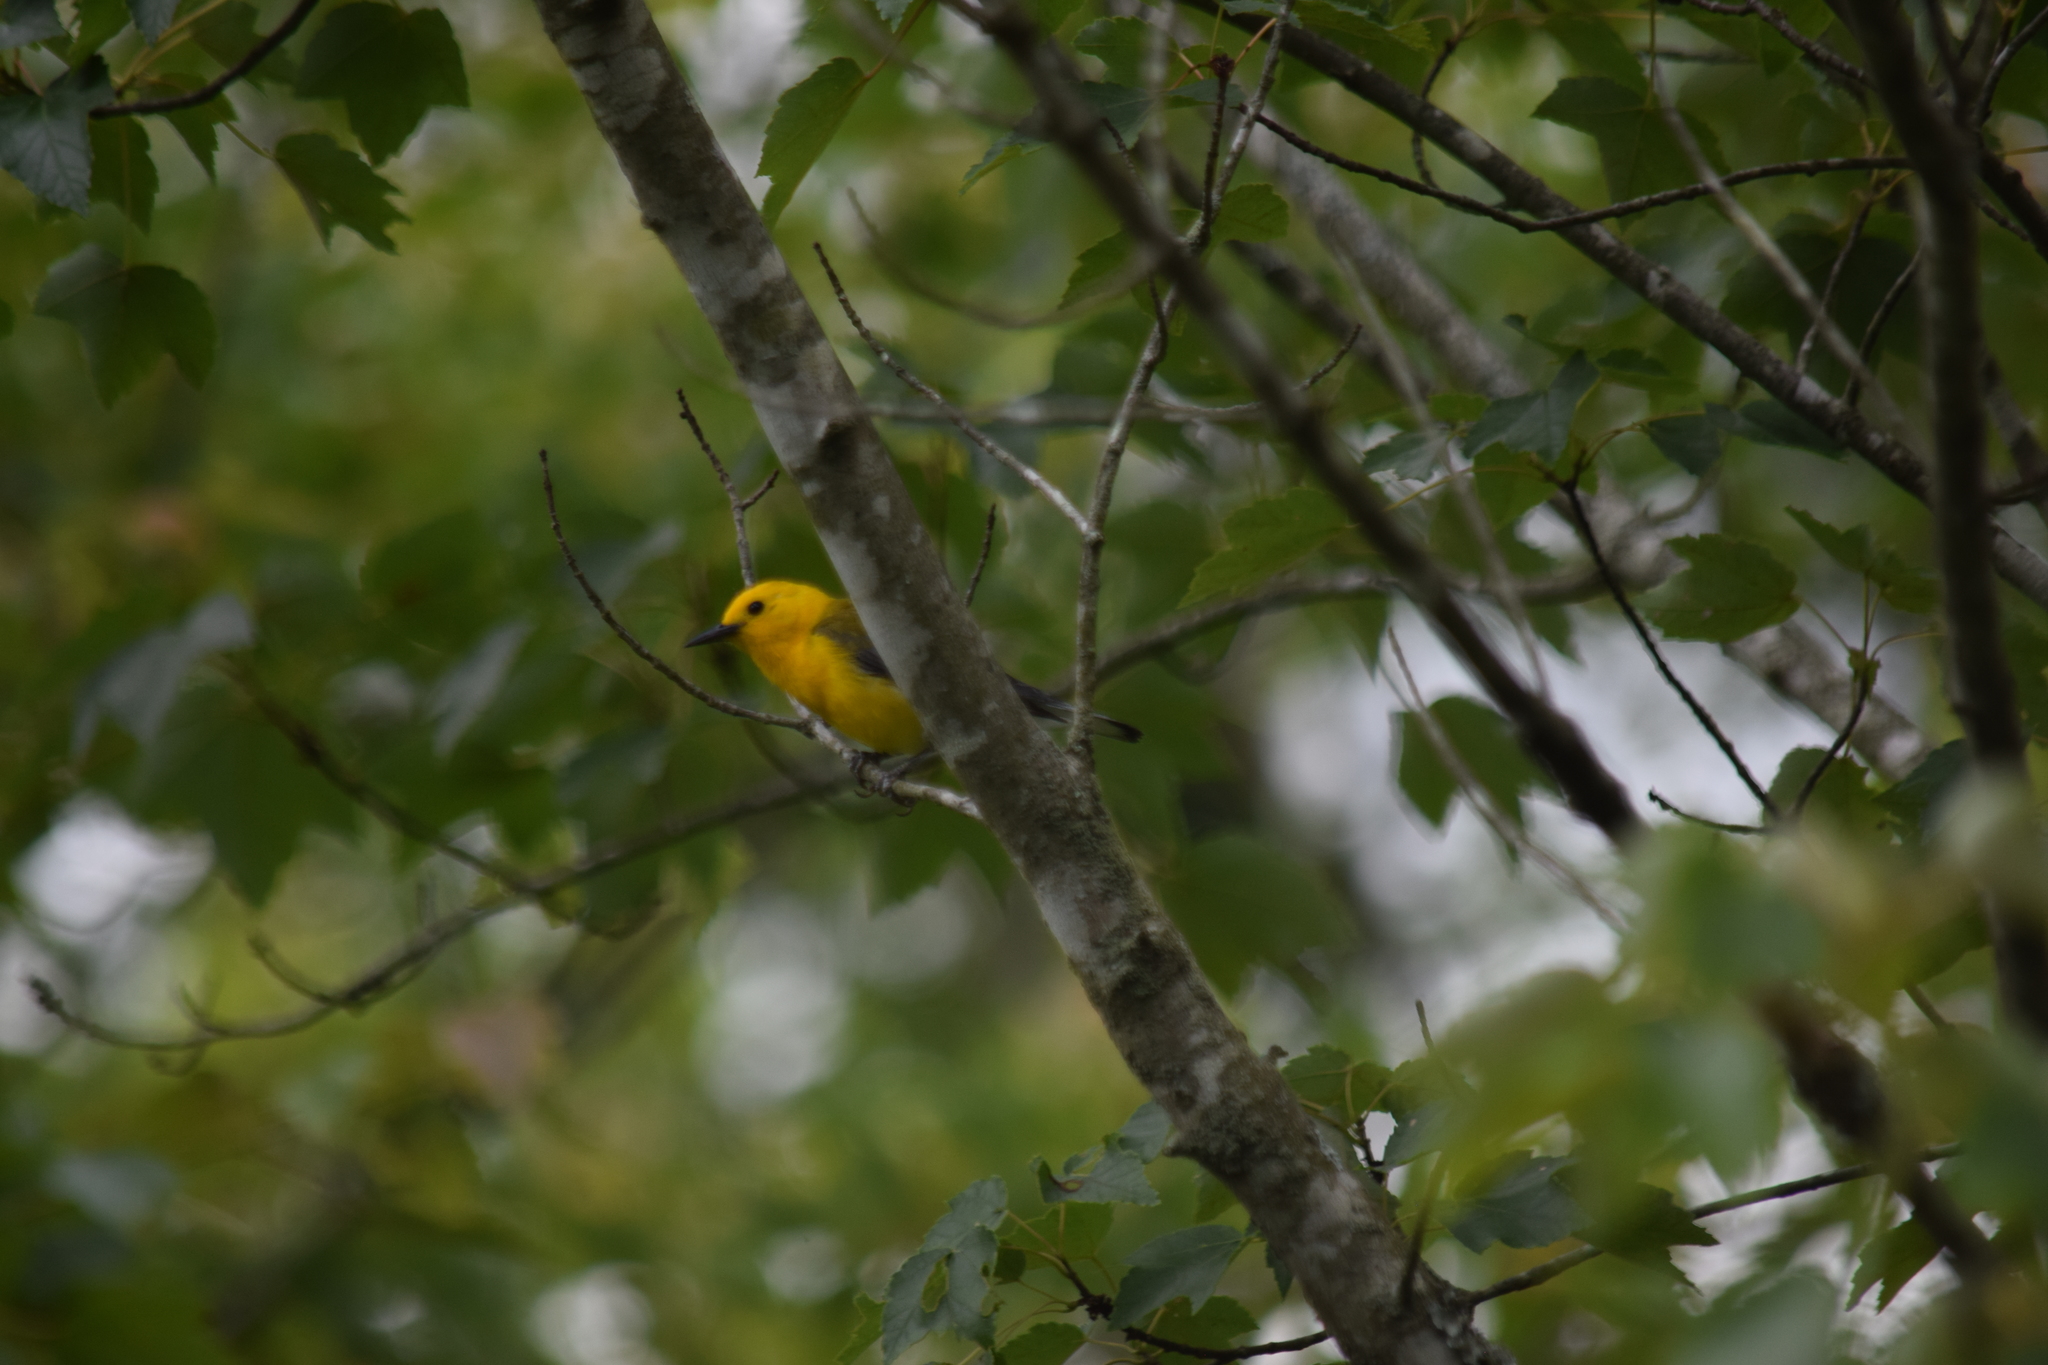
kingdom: Animalia
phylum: Chordata
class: Aves
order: Passeriformes
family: Parulidae
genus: Protonotaria
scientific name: Protonotaria citrea
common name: Prothonotary warbler
